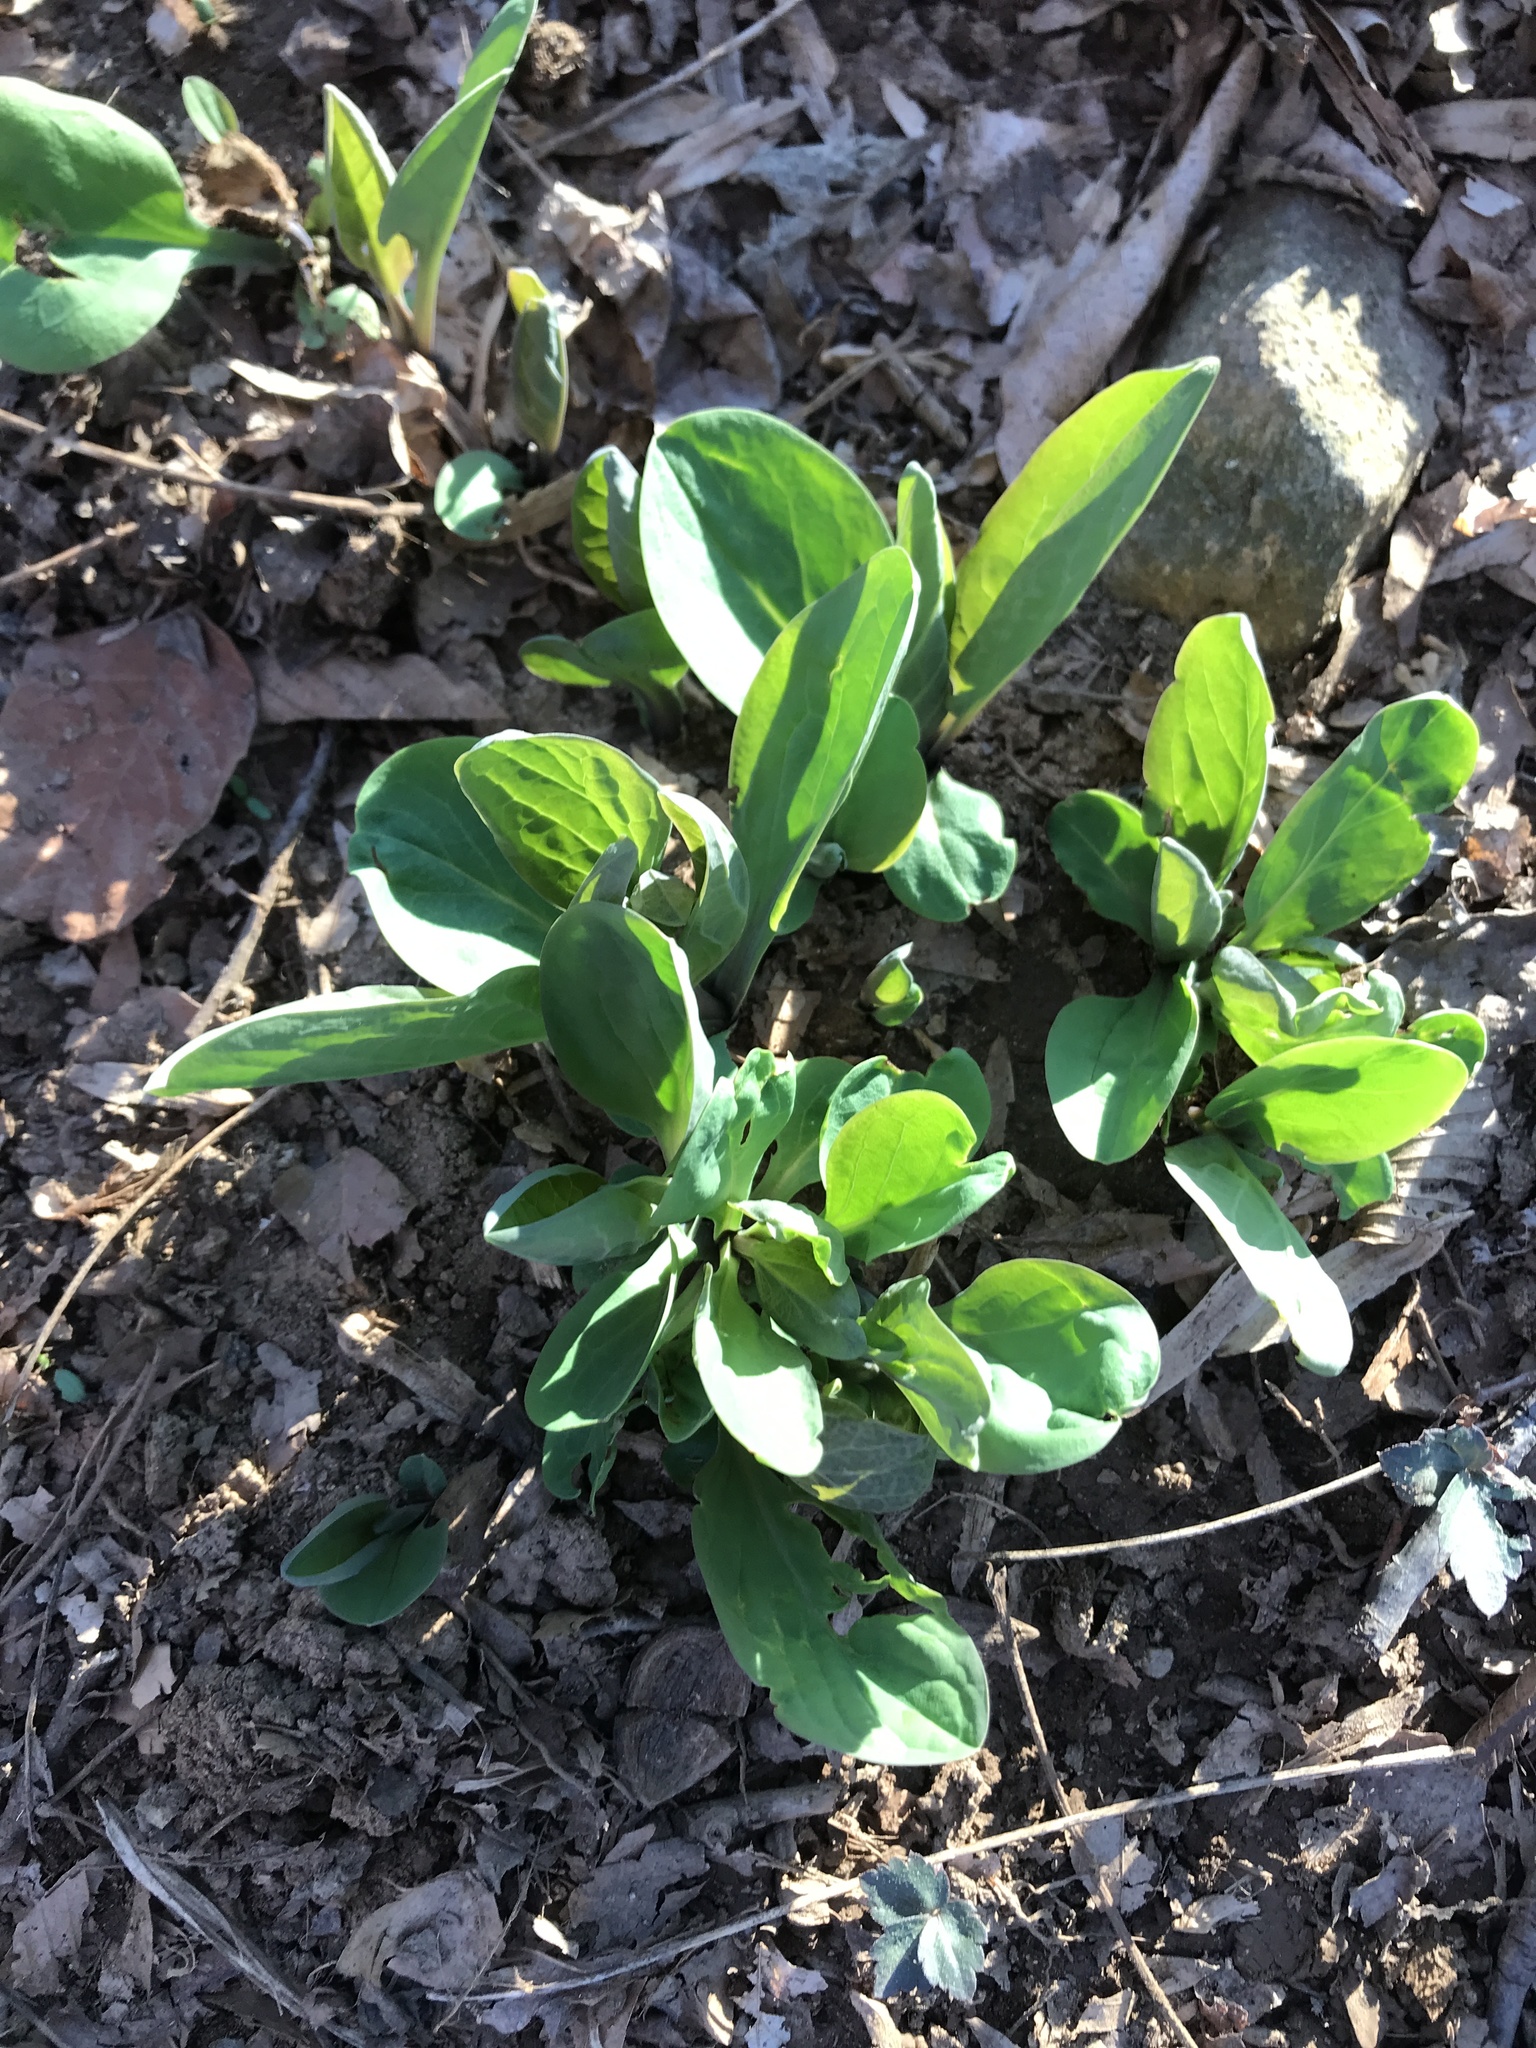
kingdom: Plantae
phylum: Tracheophyta
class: Magnoliopsida
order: Boraginales
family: Boraginaceae
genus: Mertensia
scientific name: Mertensia virginica
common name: Virginia bluebells
